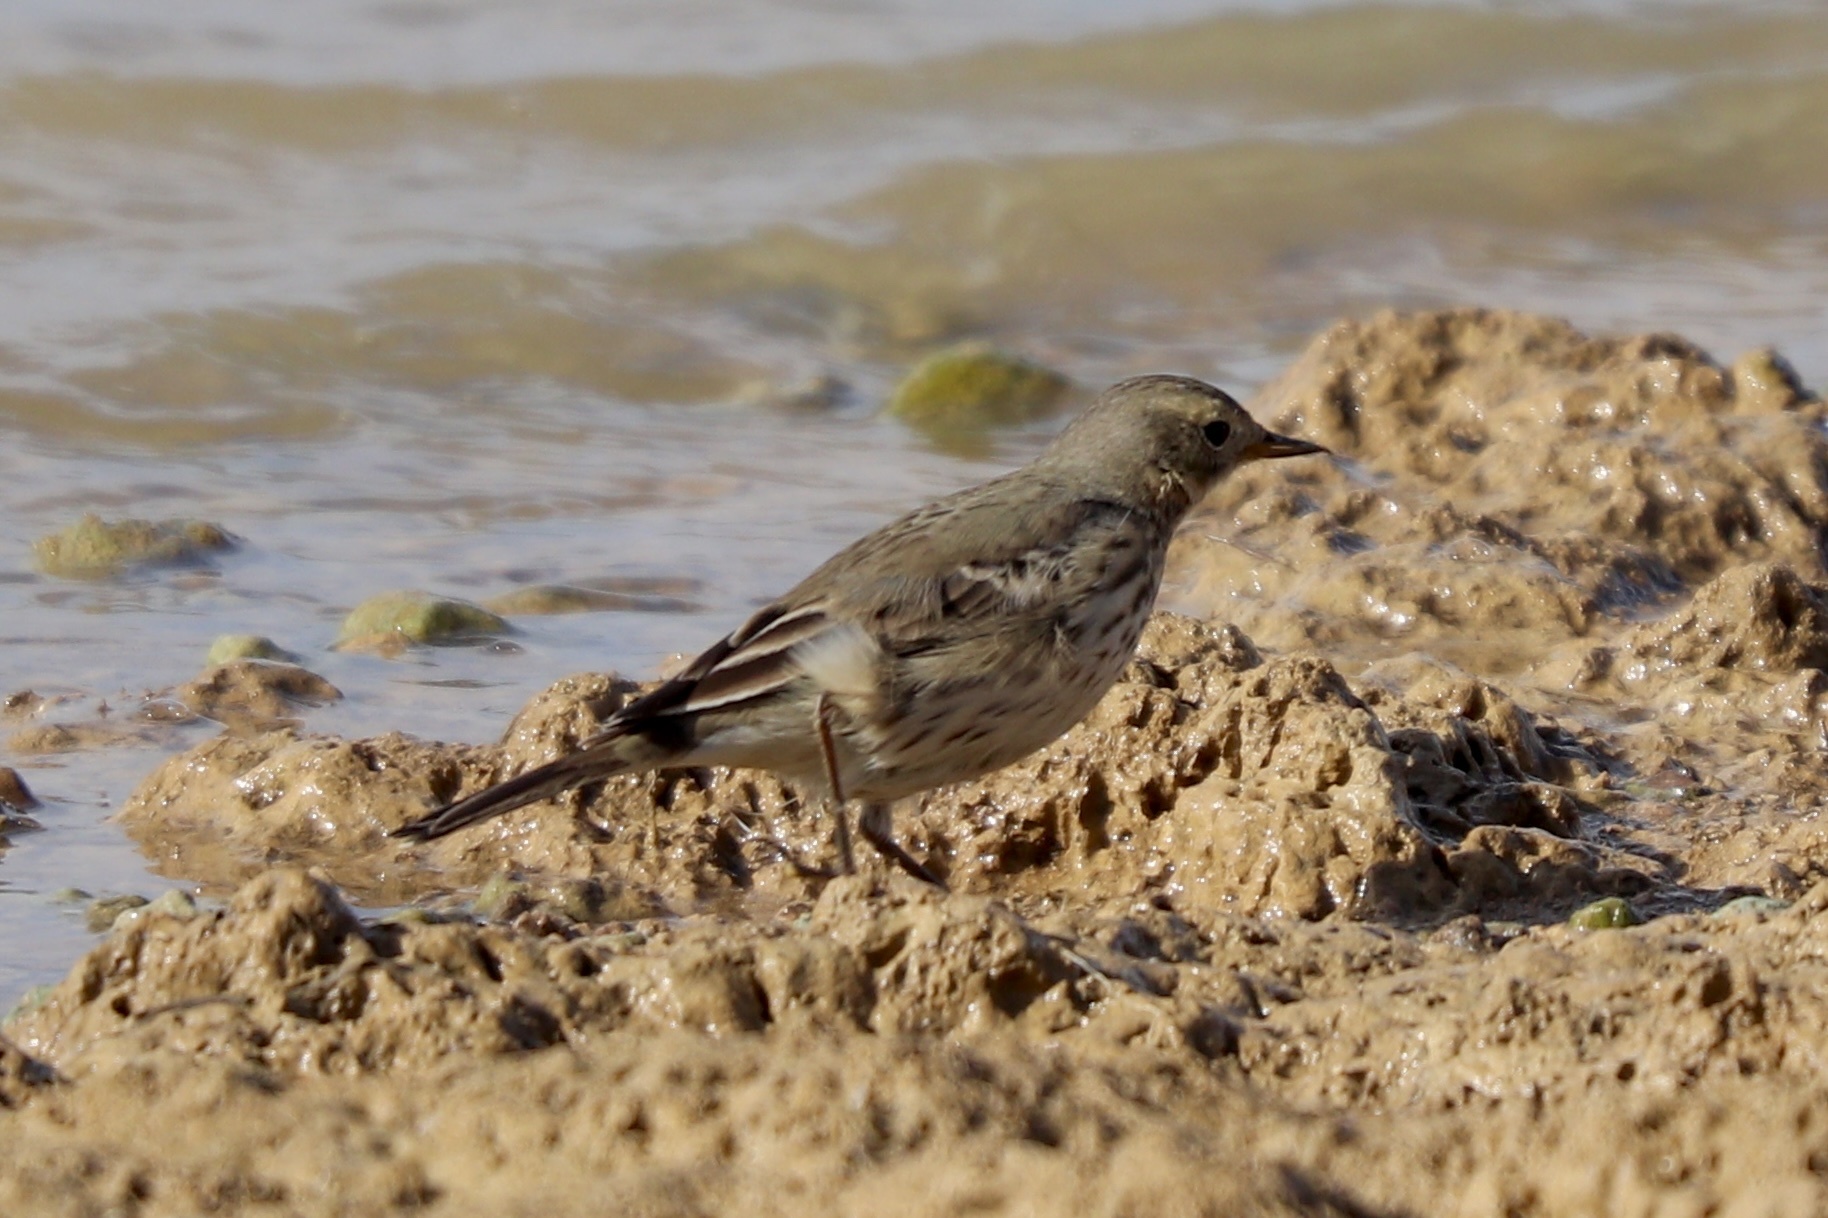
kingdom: Animalia
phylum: Chordata
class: Aves
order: Passeriformes
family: Motacillidae
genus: Anthus
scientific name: Anthus rubescens
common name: Buff-bellied pipit
